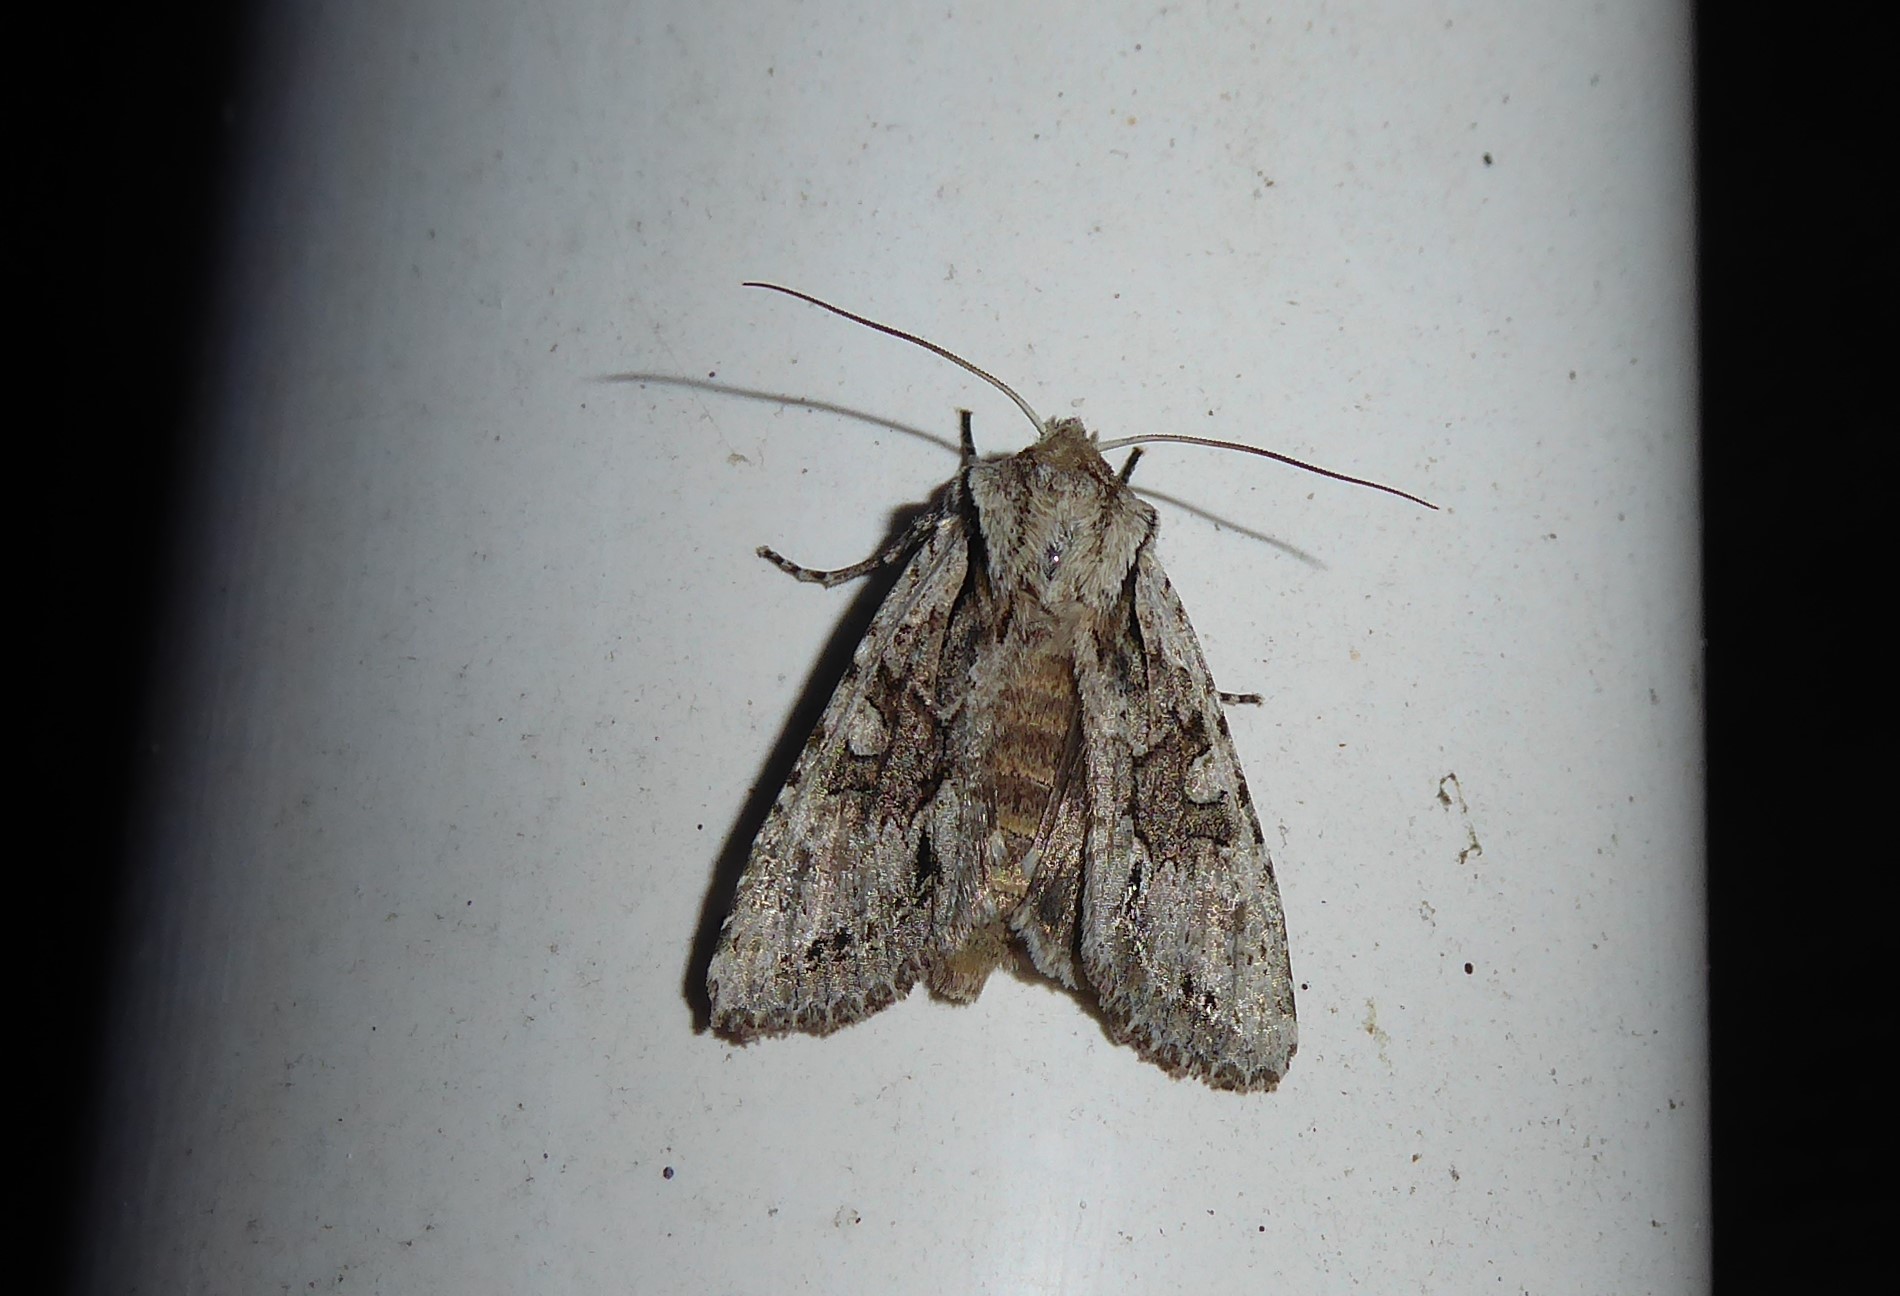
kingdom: Animalia
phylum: Arthropoda
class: Insecta
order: Lepidoptera
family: Noctuidae
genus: Ichneutica
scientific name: Ichneutica mutans
